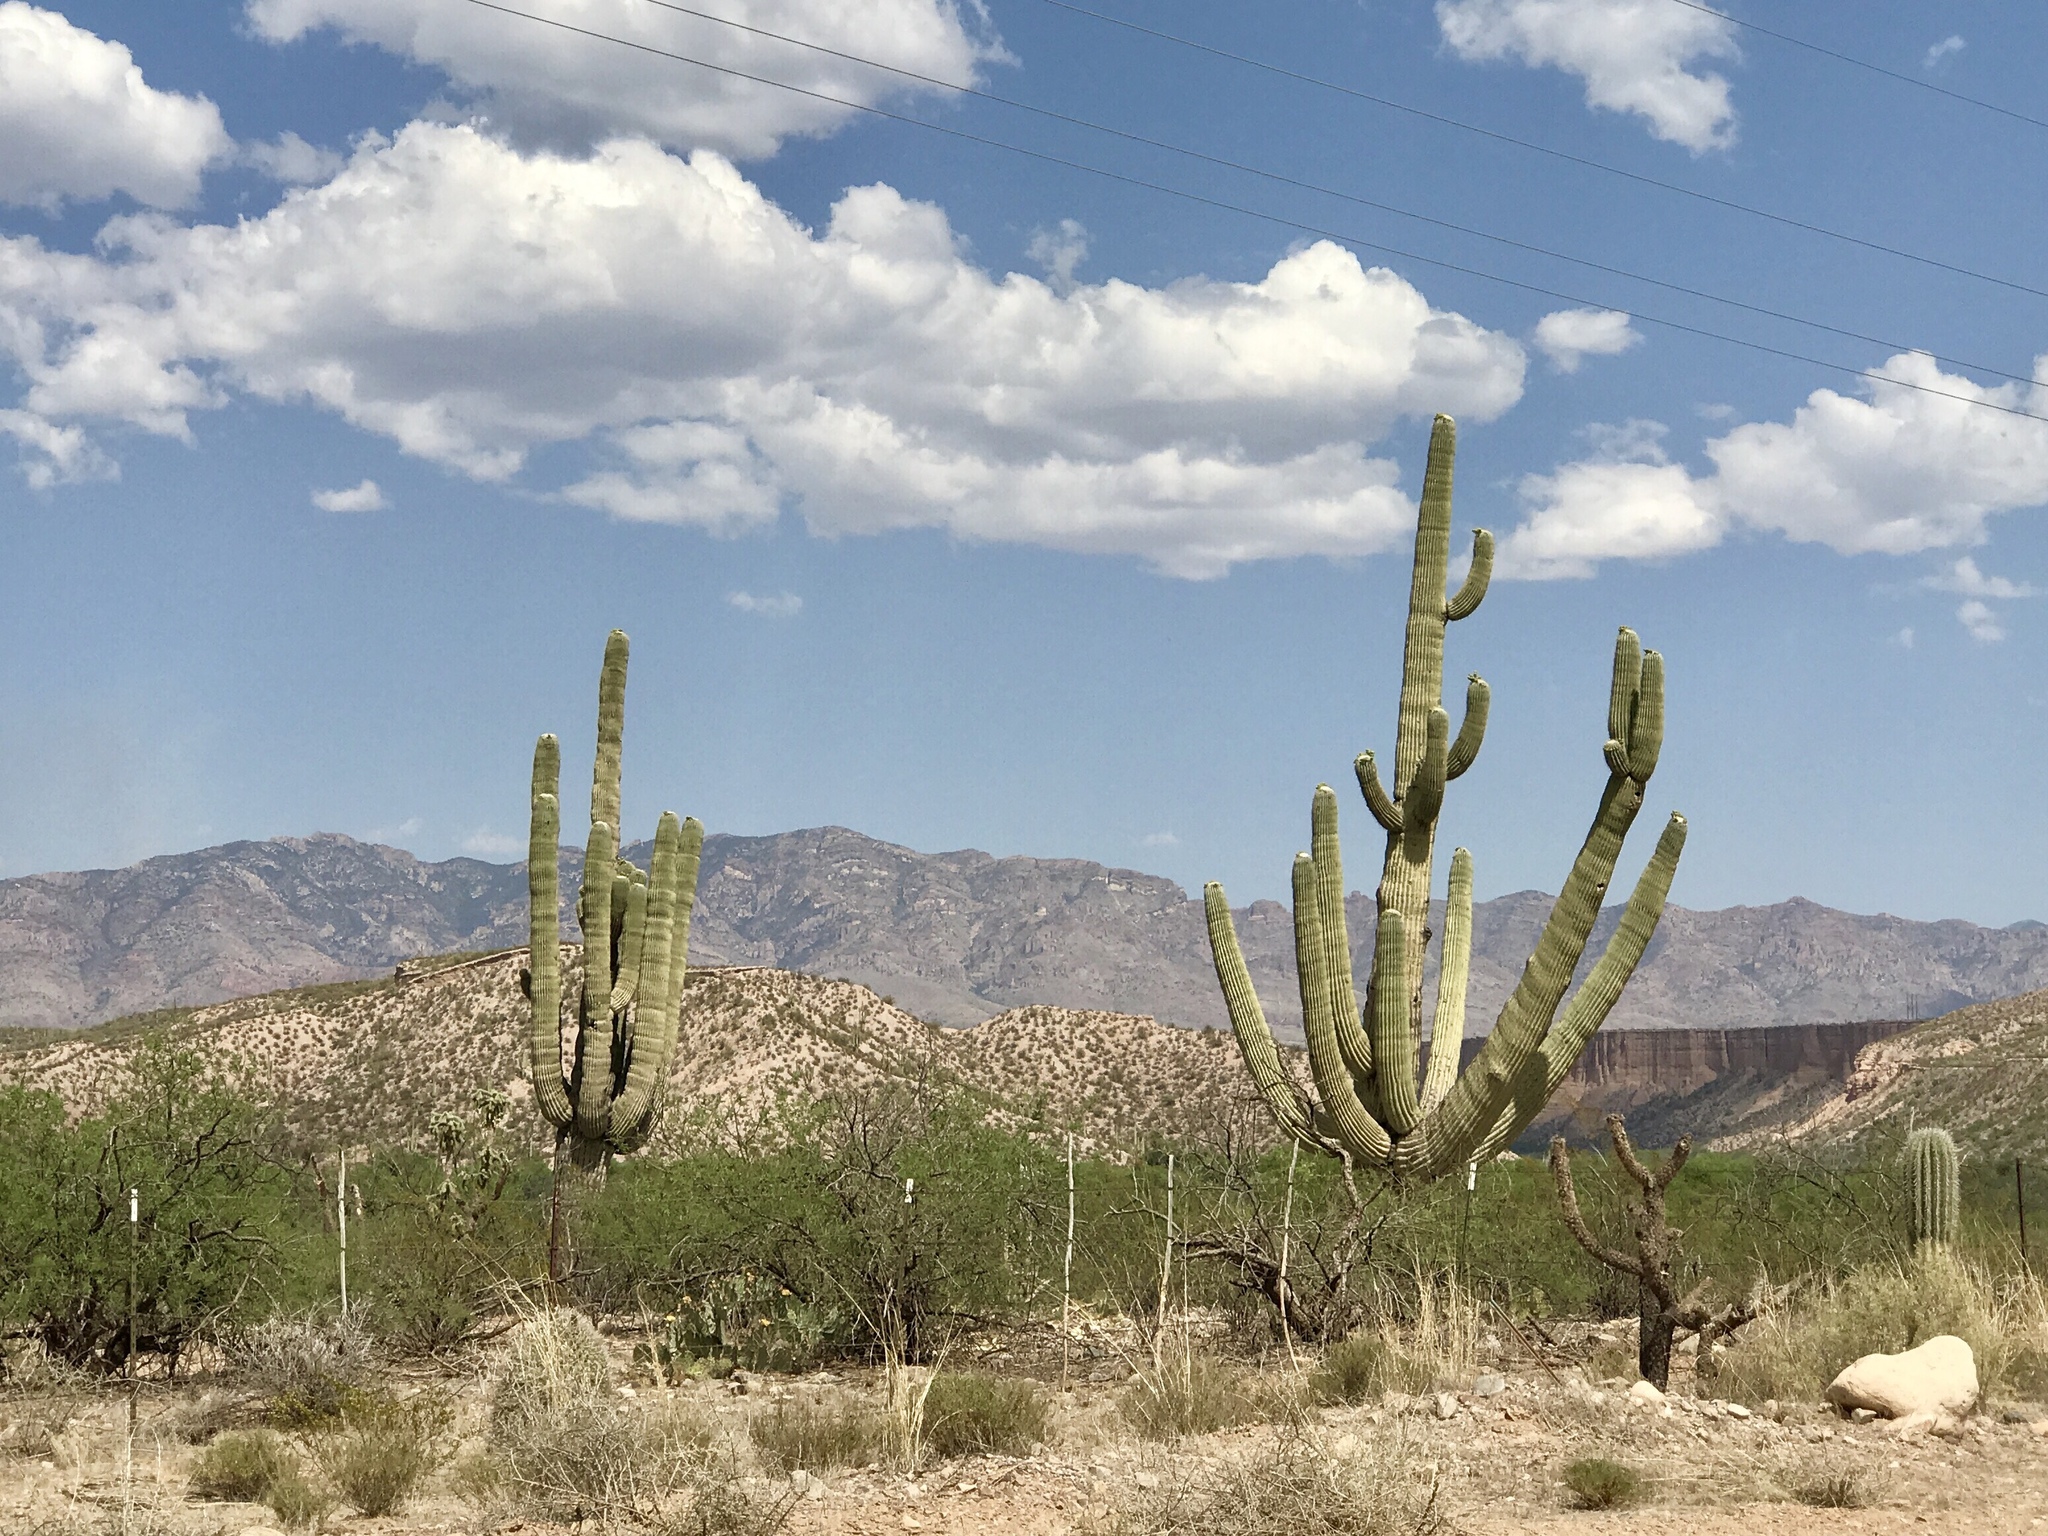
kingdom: Plantae
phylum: Tracheophyta
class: Magnoliopsida
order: Caryophyllales
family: Cactaceae
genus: Carnegiea
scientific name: Carnegiea gigantea
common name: Saguaro
